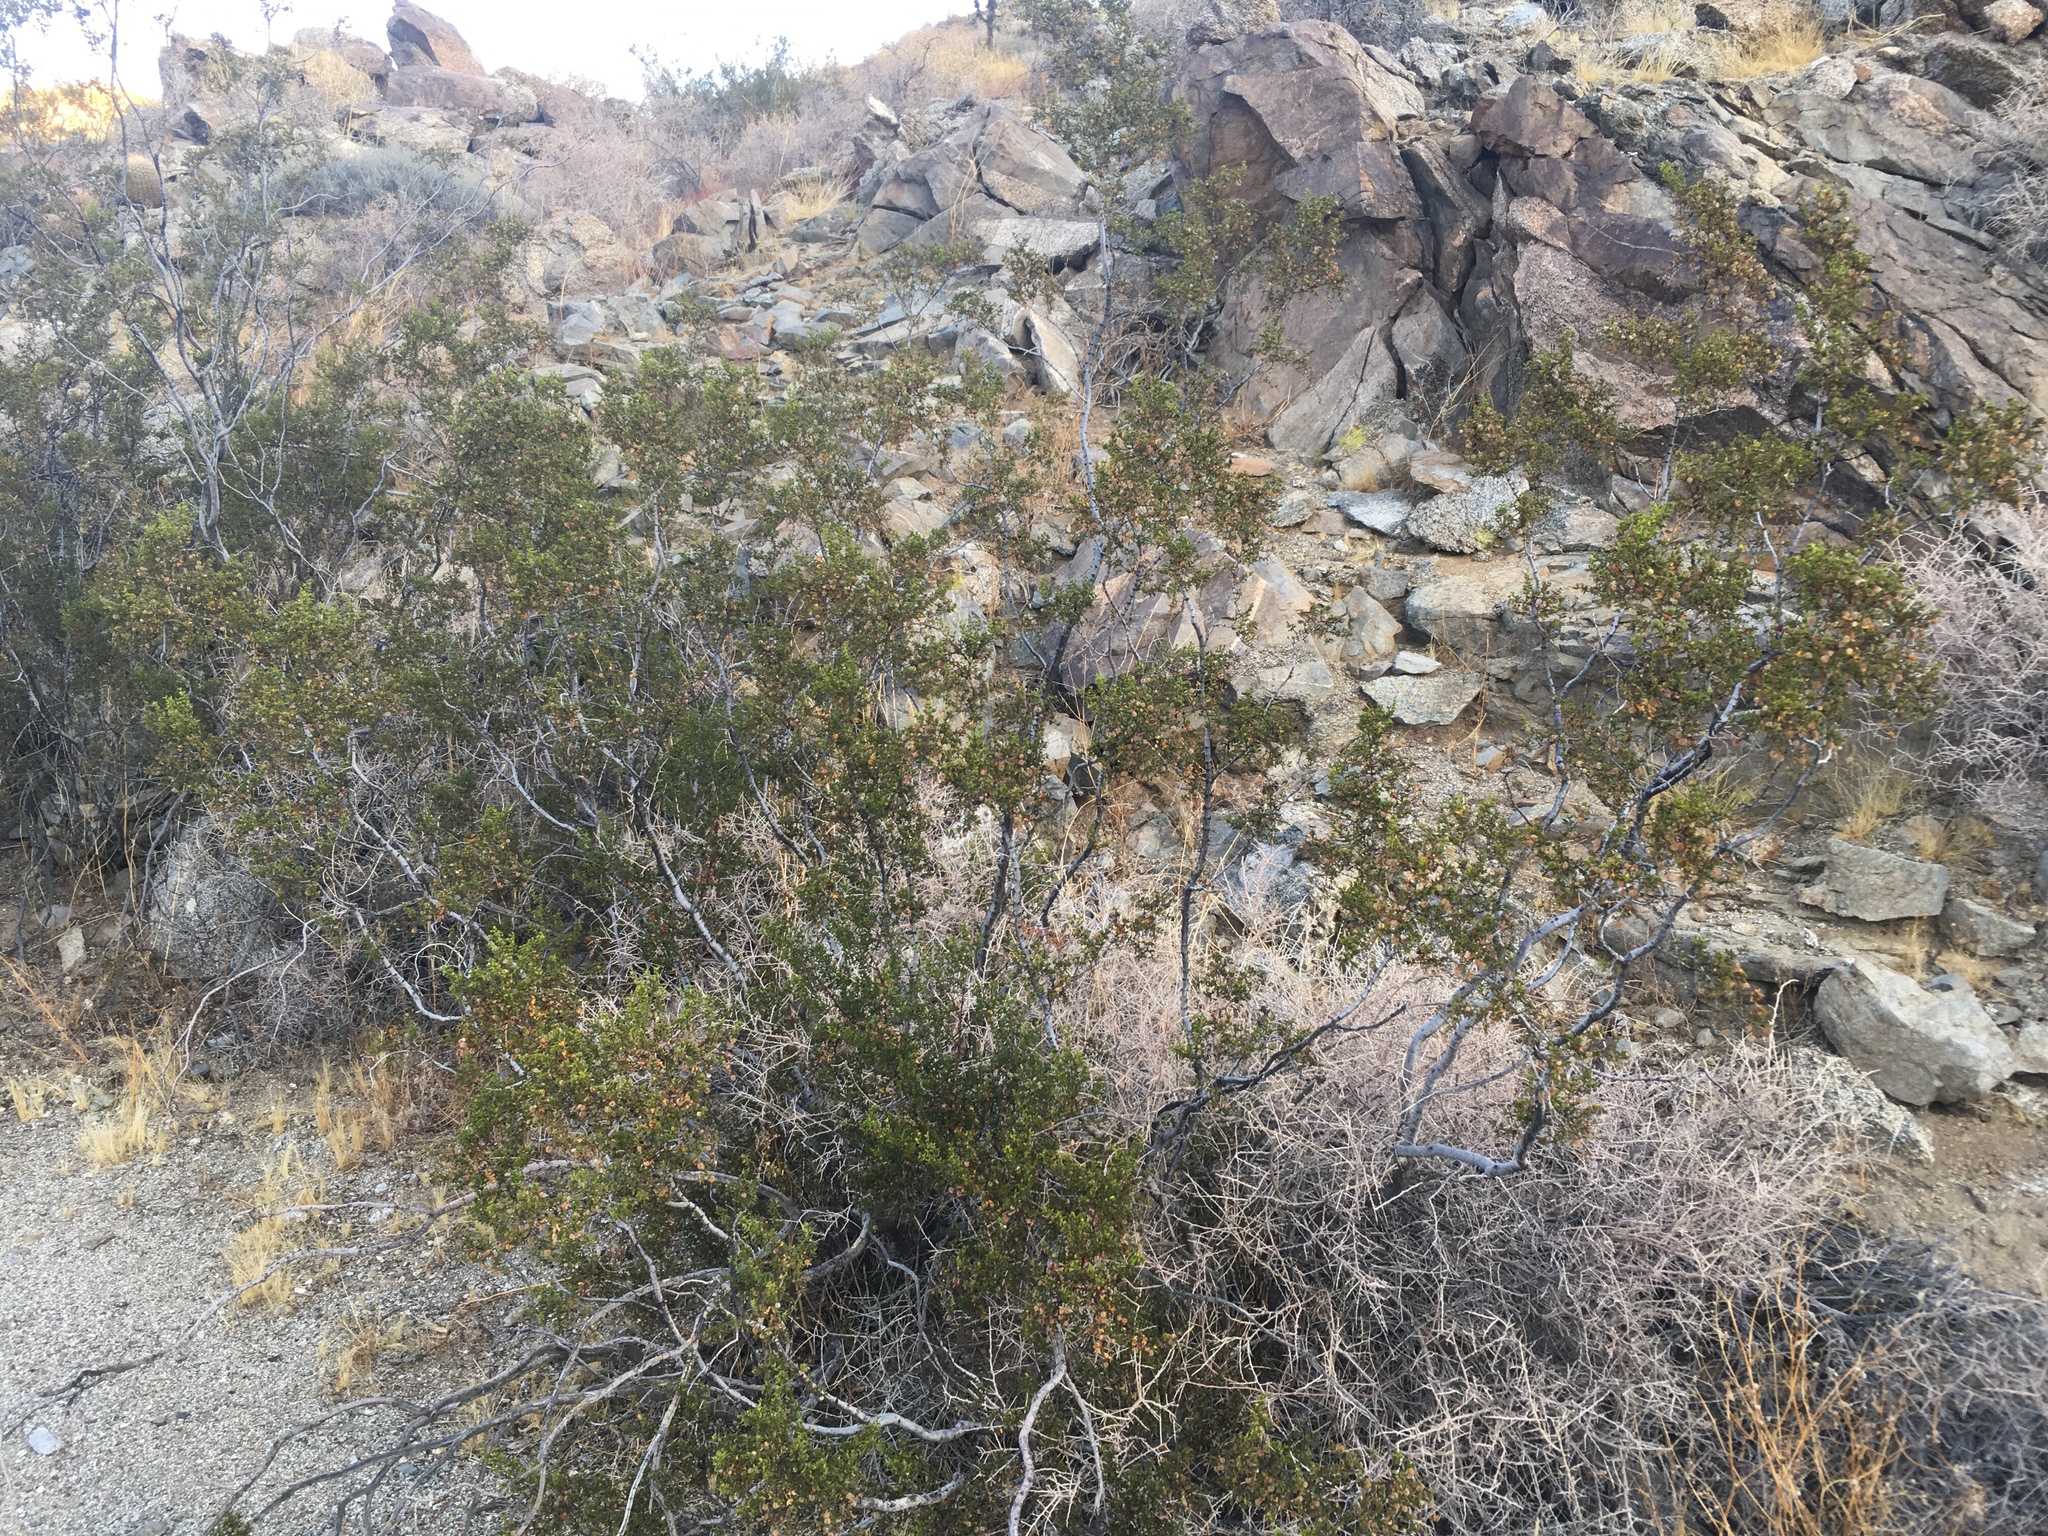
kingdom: Plantae
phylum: Tracheophyta
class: Magnoliopsida
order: Zygophyllales
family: Zygophyllaceae
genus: Larrea
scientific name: Larrea tridentata
